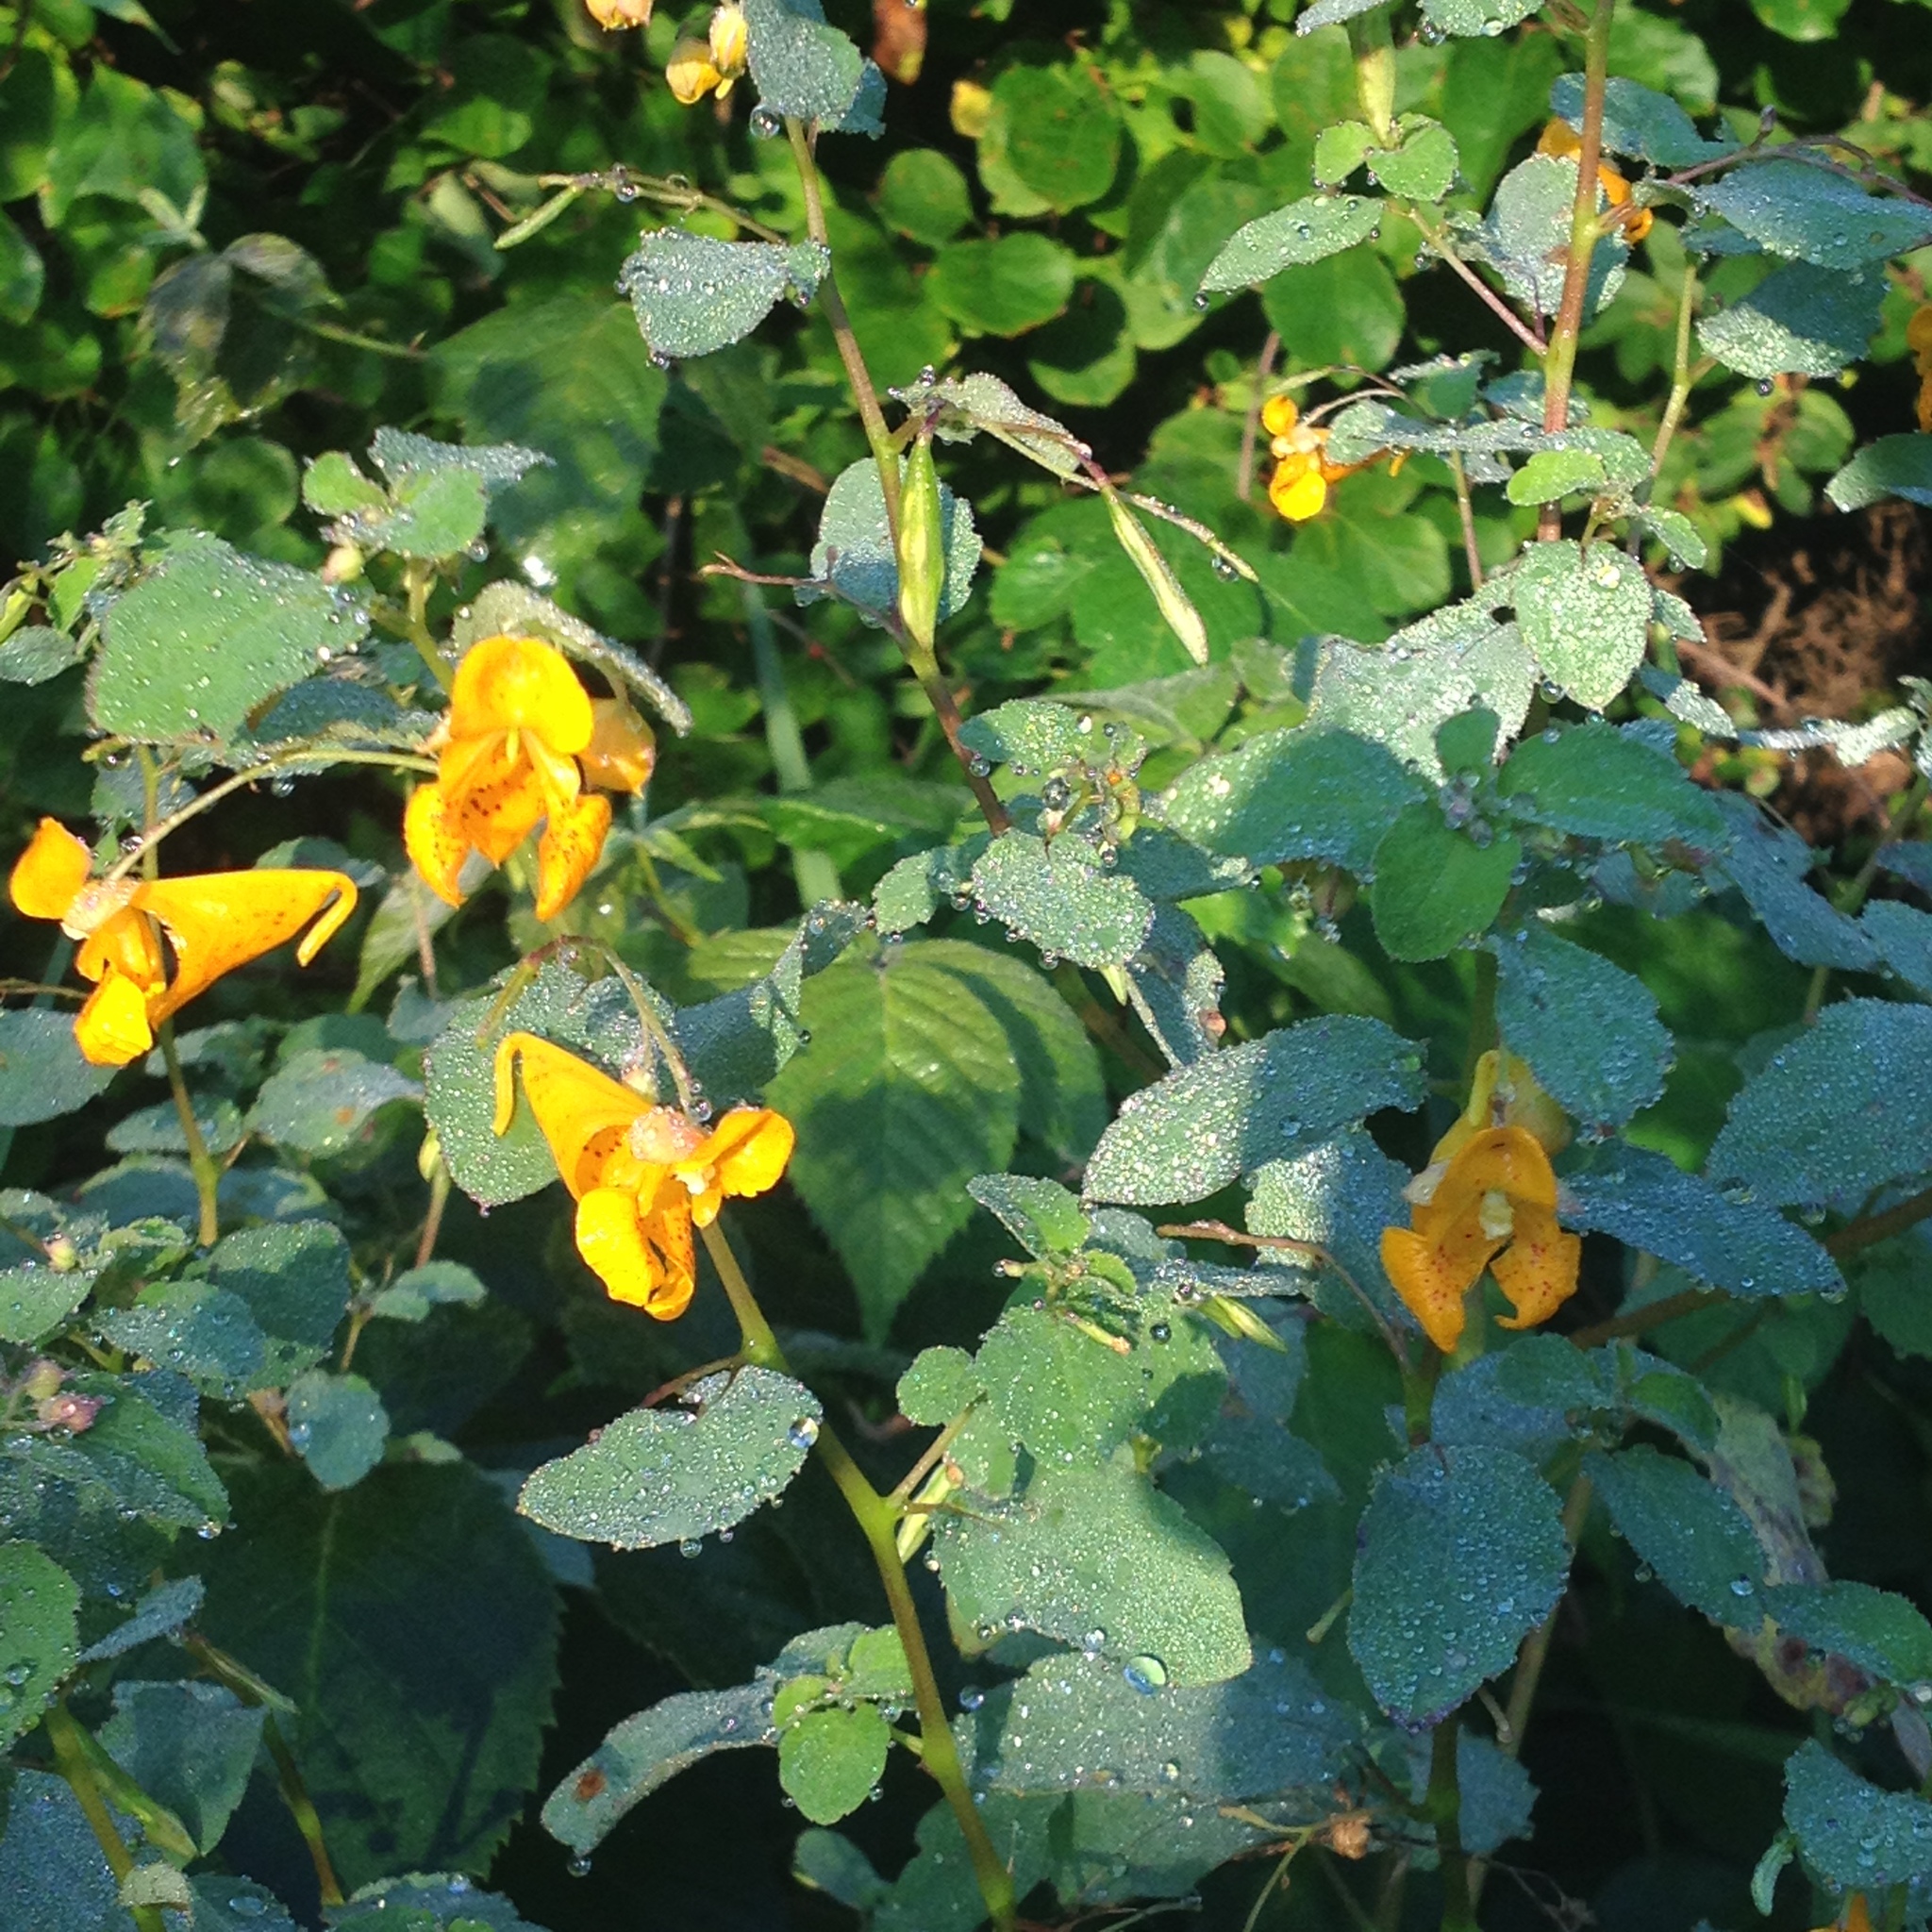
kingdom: Plantae
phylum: Tracheophyta
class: Magnoliopsida
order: Ericales
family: Balsaminaceae
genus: Impatiens
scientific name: Impatiens capensis
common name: Orange balsam
